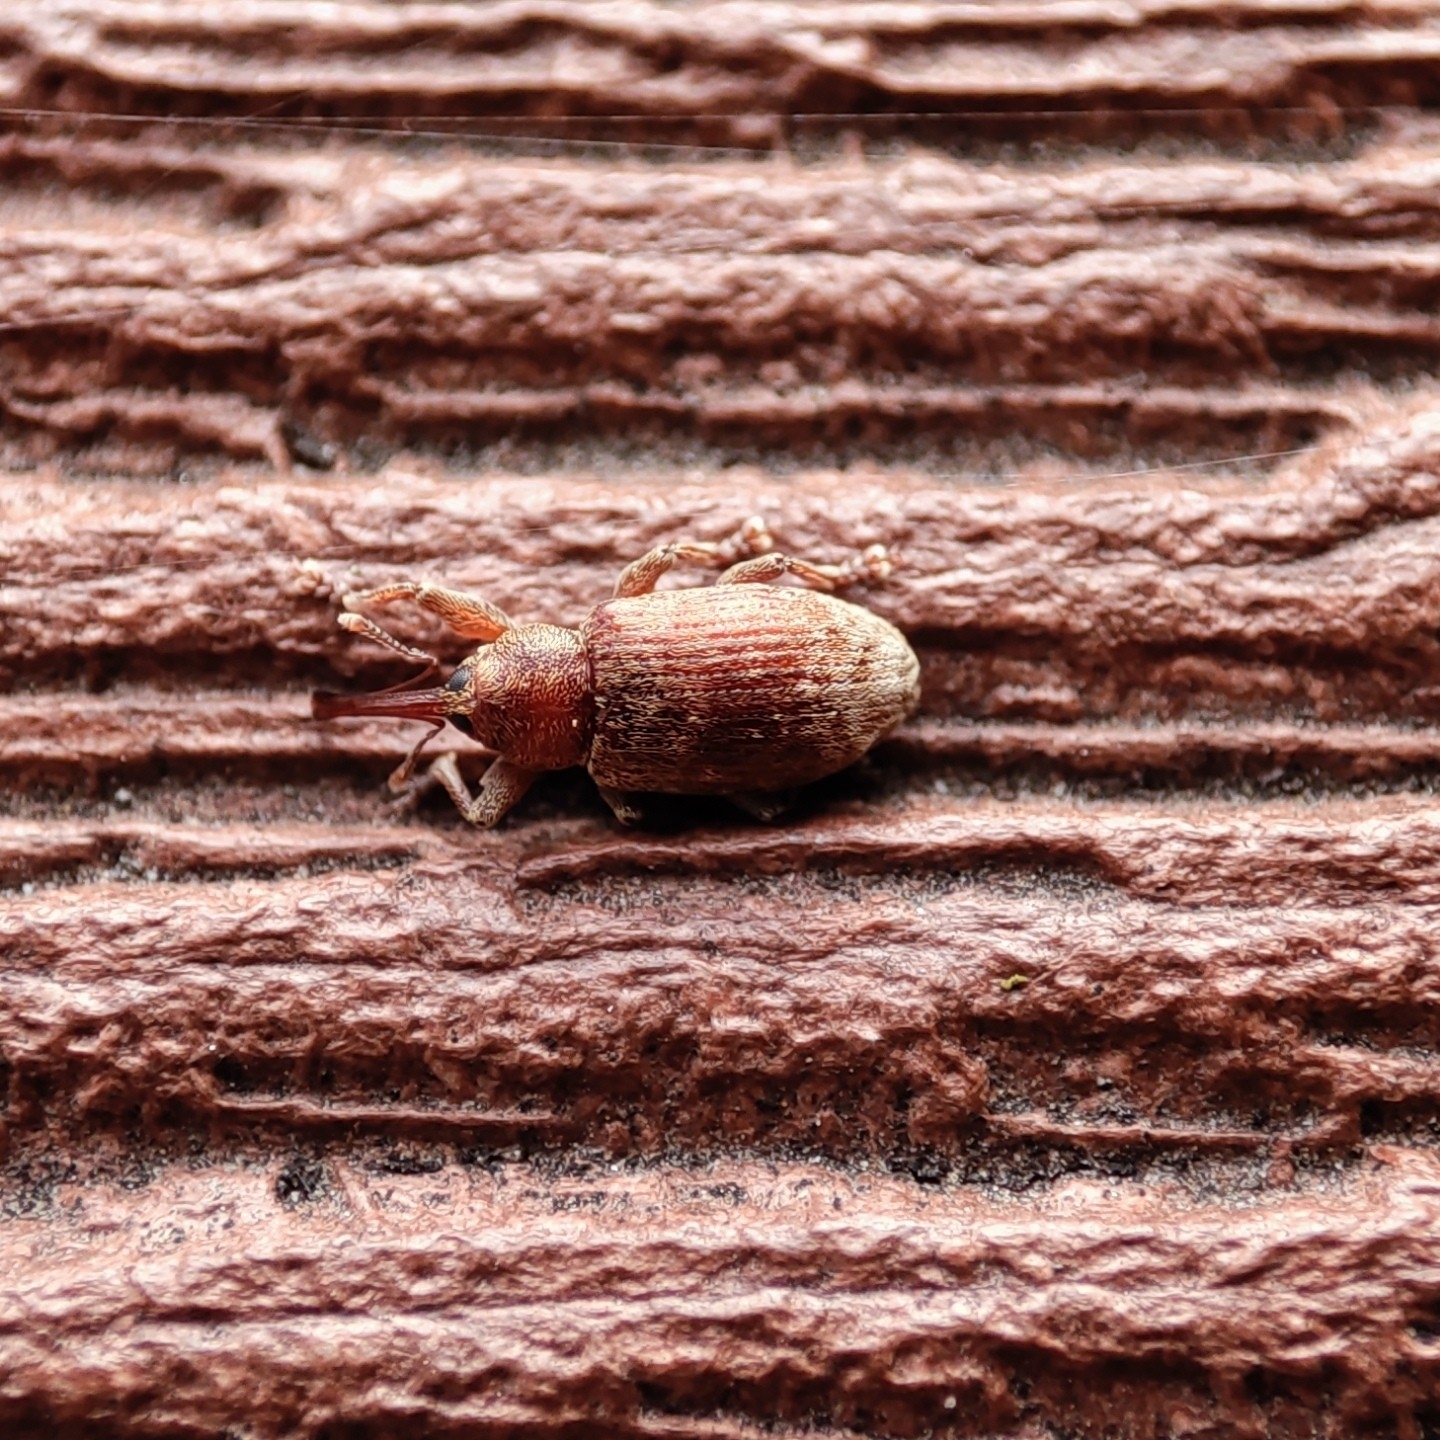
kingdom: Animalia
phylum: Arthropoda
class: Insecta
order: Coleoptera
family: Curculionidae
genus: Dorytomus
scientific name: Dorytomus melanophthalmus
